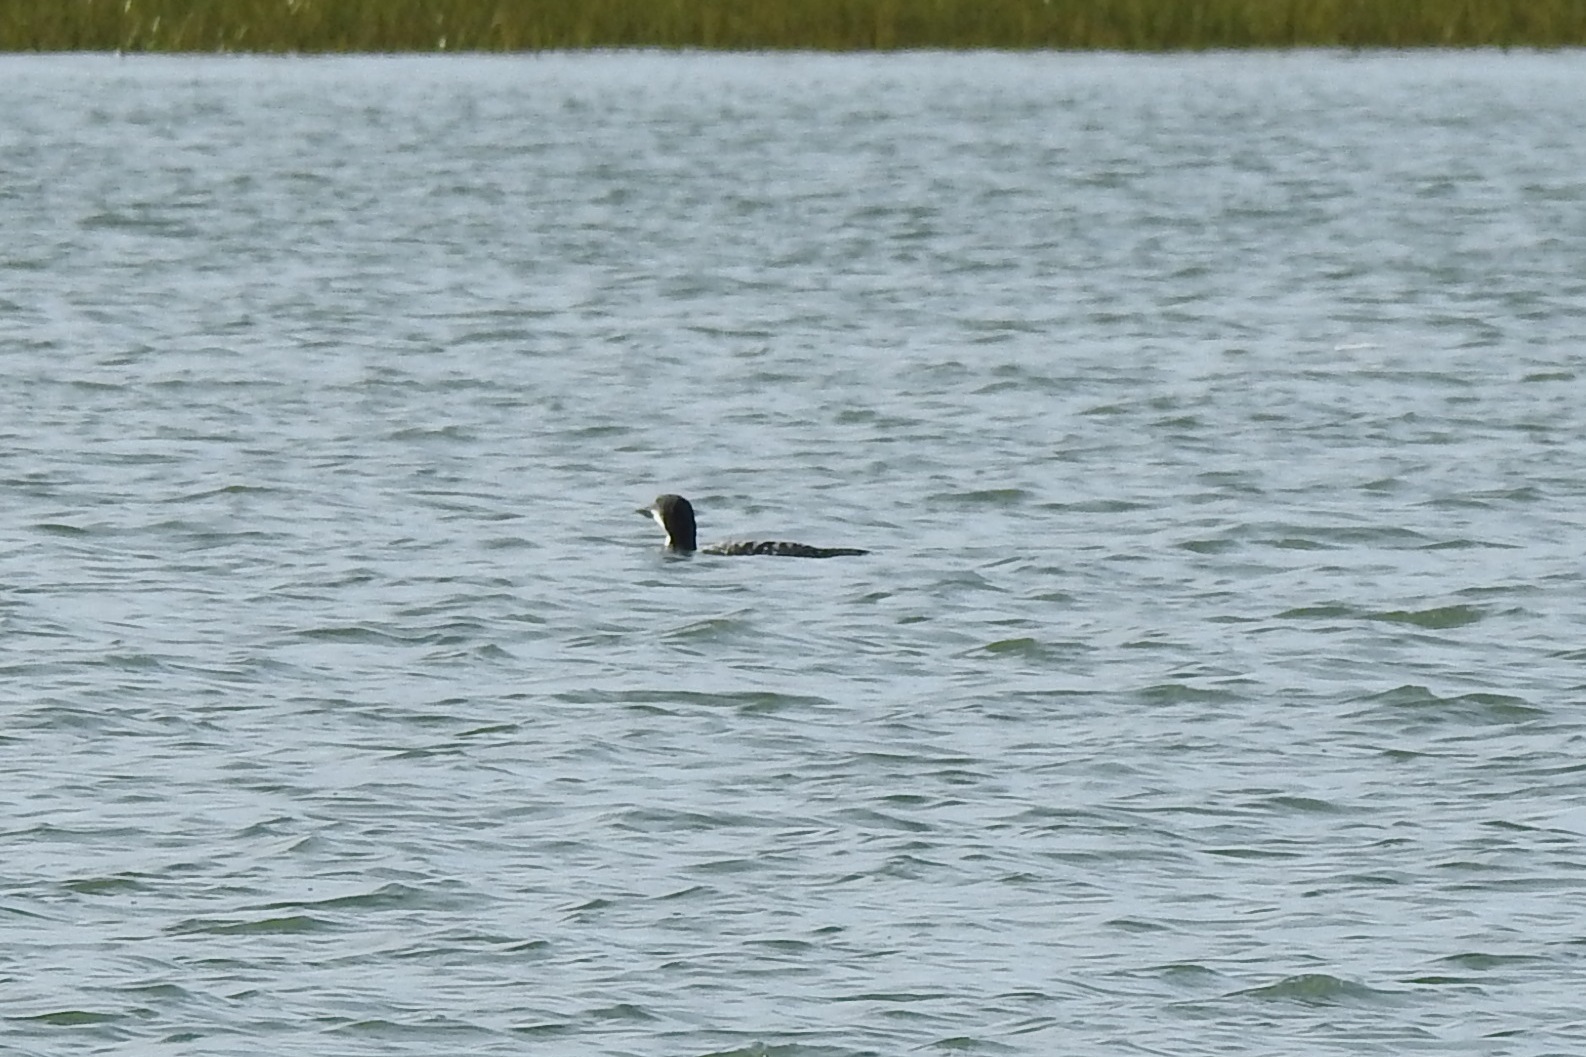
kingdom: Animalia
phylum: Chordata
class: Aves
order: Gaviiformes
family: Gaviidae
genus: Gavia
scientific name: Gavia immer
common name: Common loon
